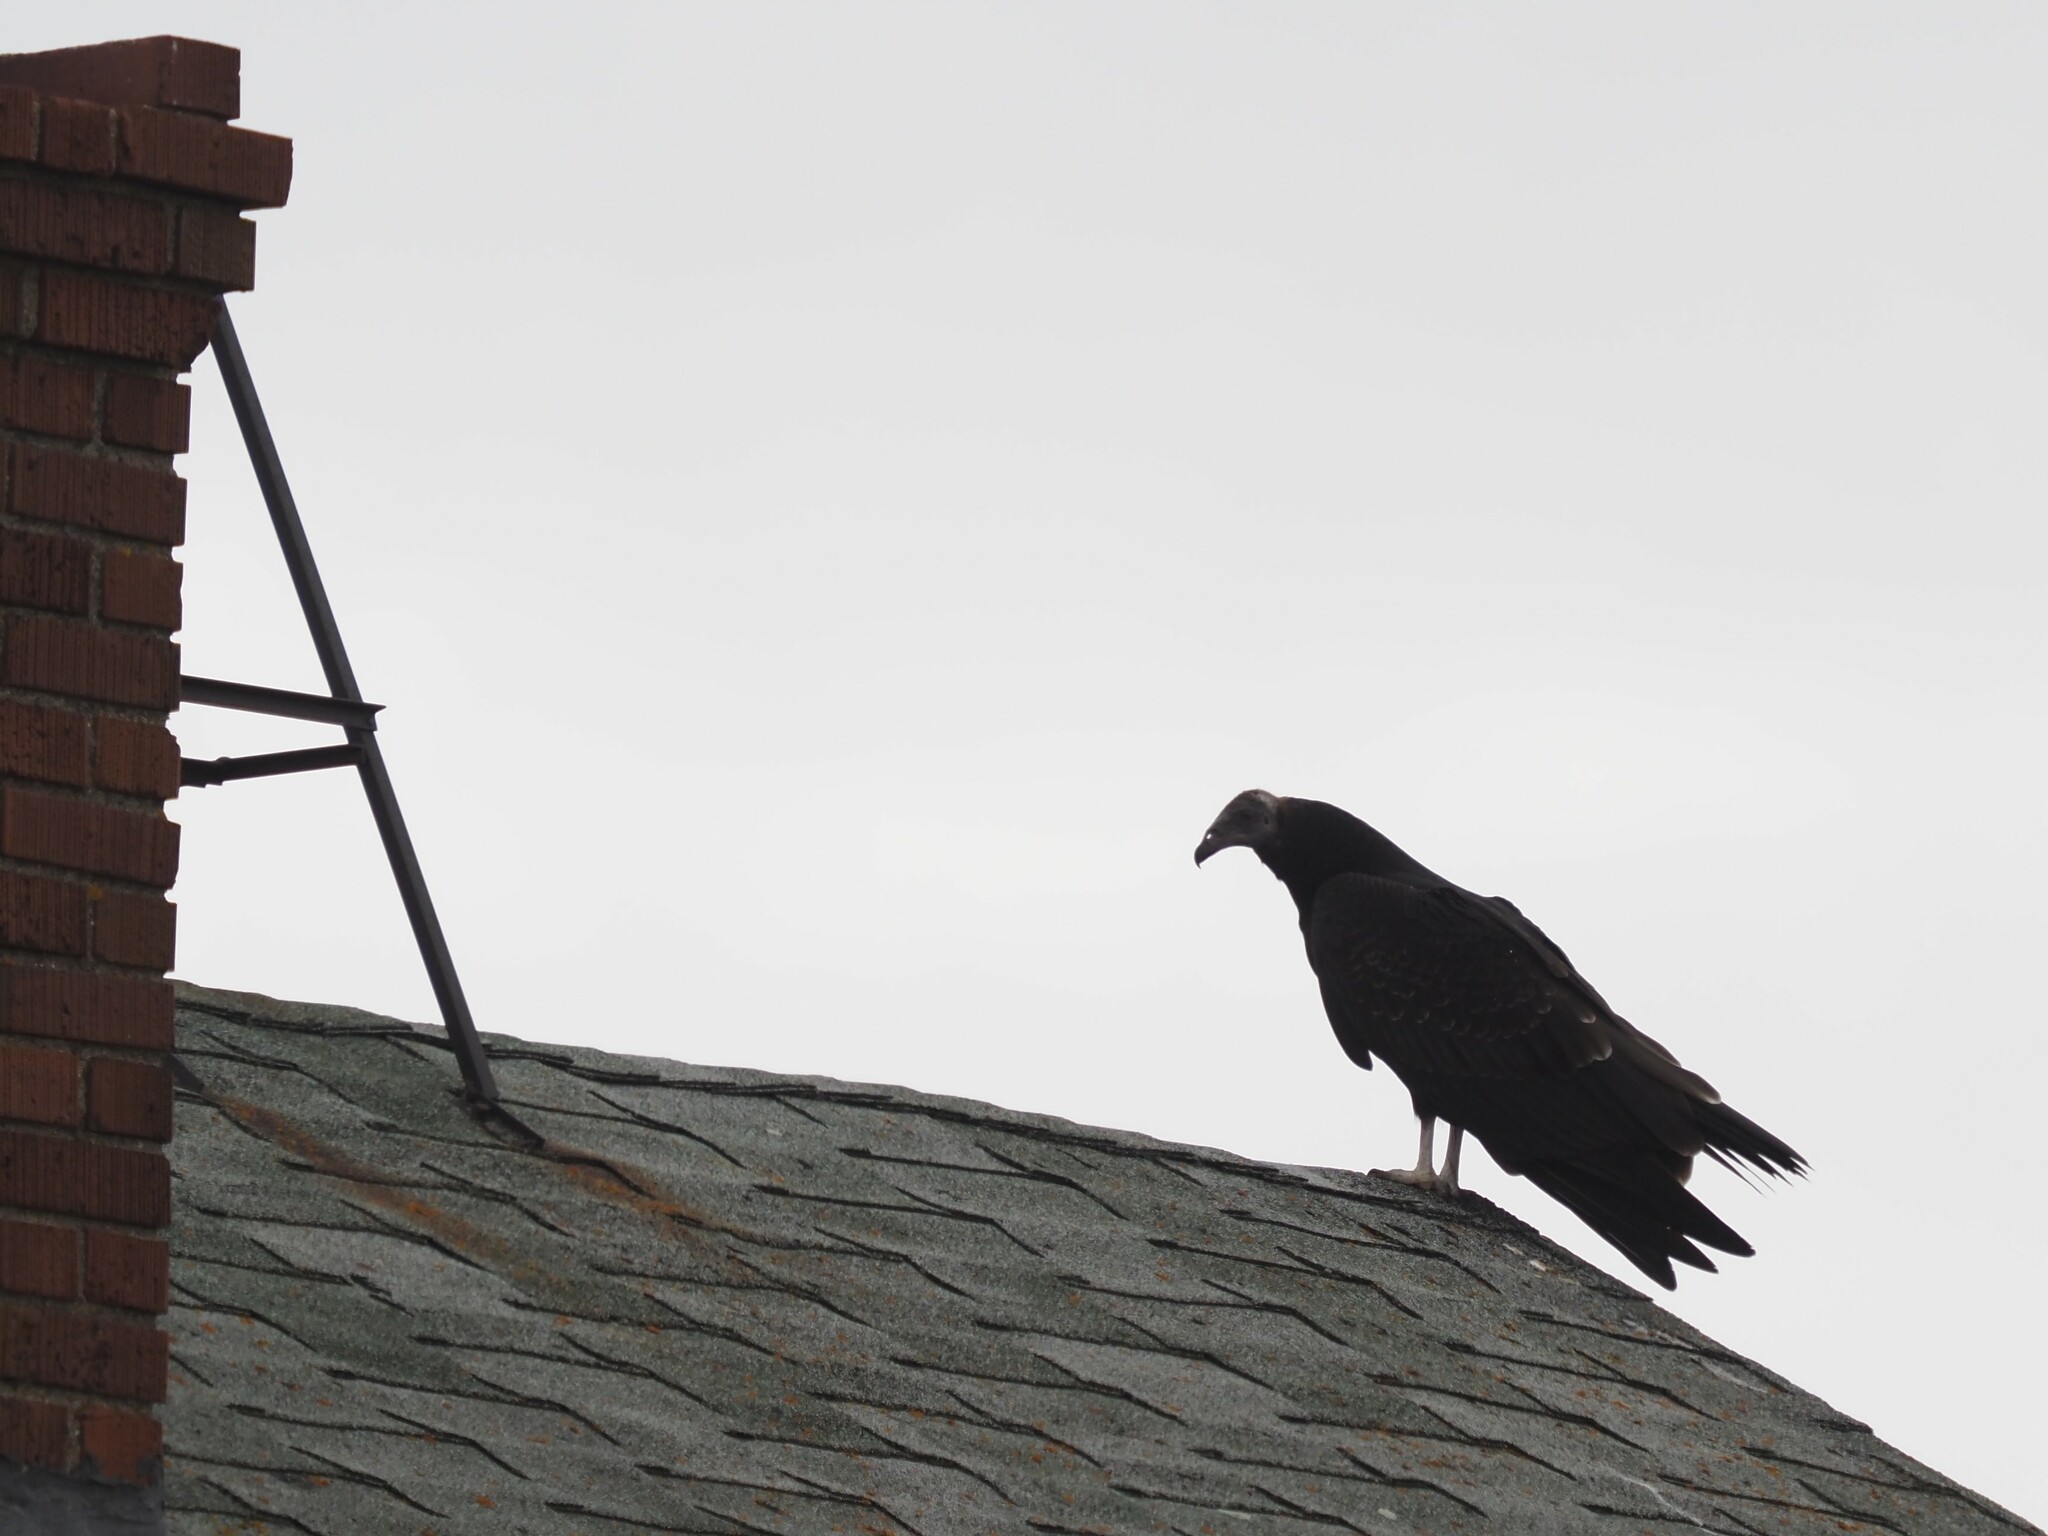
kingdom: Animalia
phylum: Chordata
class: Aves
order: Accipitriformes
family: Cathartidae
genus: Cathartes
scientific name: Cathartes aura
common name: Turkey vulture
